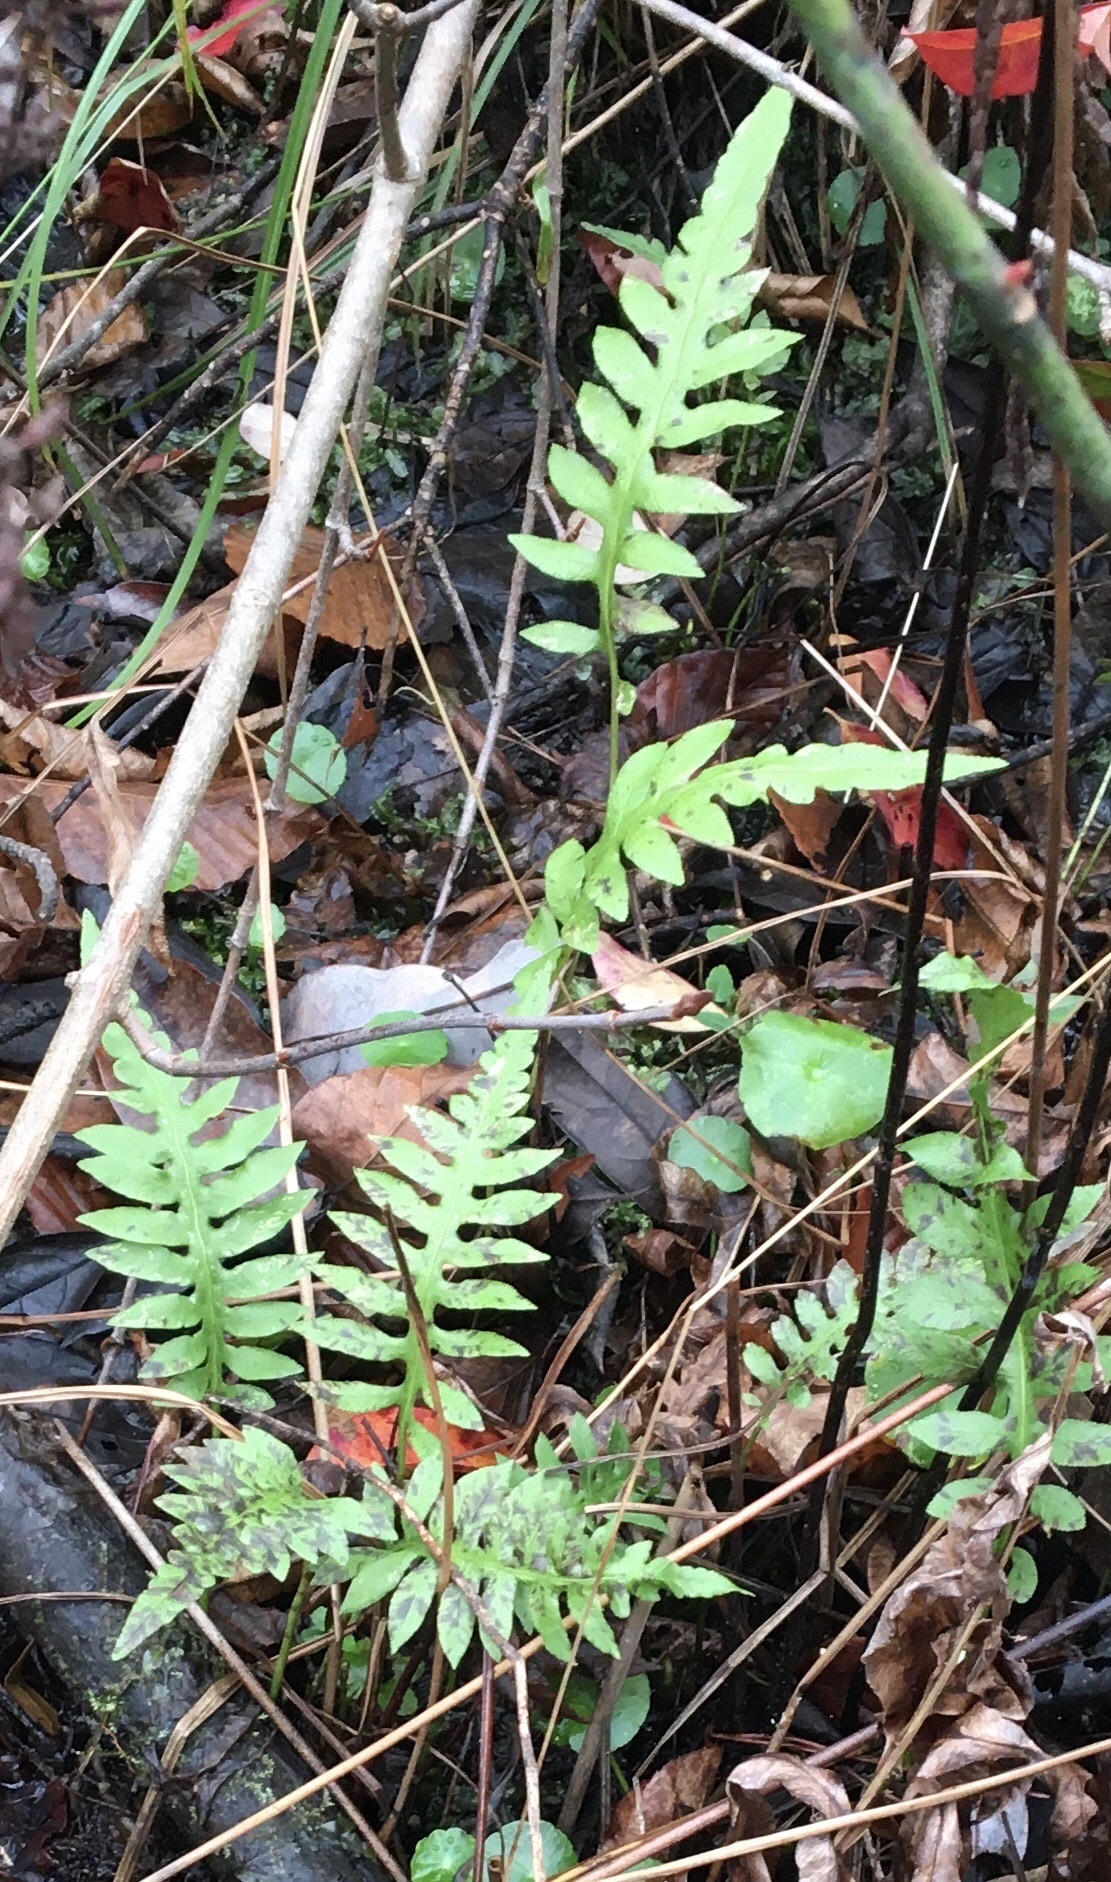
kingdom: Plantae
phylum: Tracheophyta
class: Polypodiopsida
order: Polypodiales
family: Blechnaceae
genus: Lorinseria
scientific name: Lorinseria areolata
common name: Dwarf chain fern
